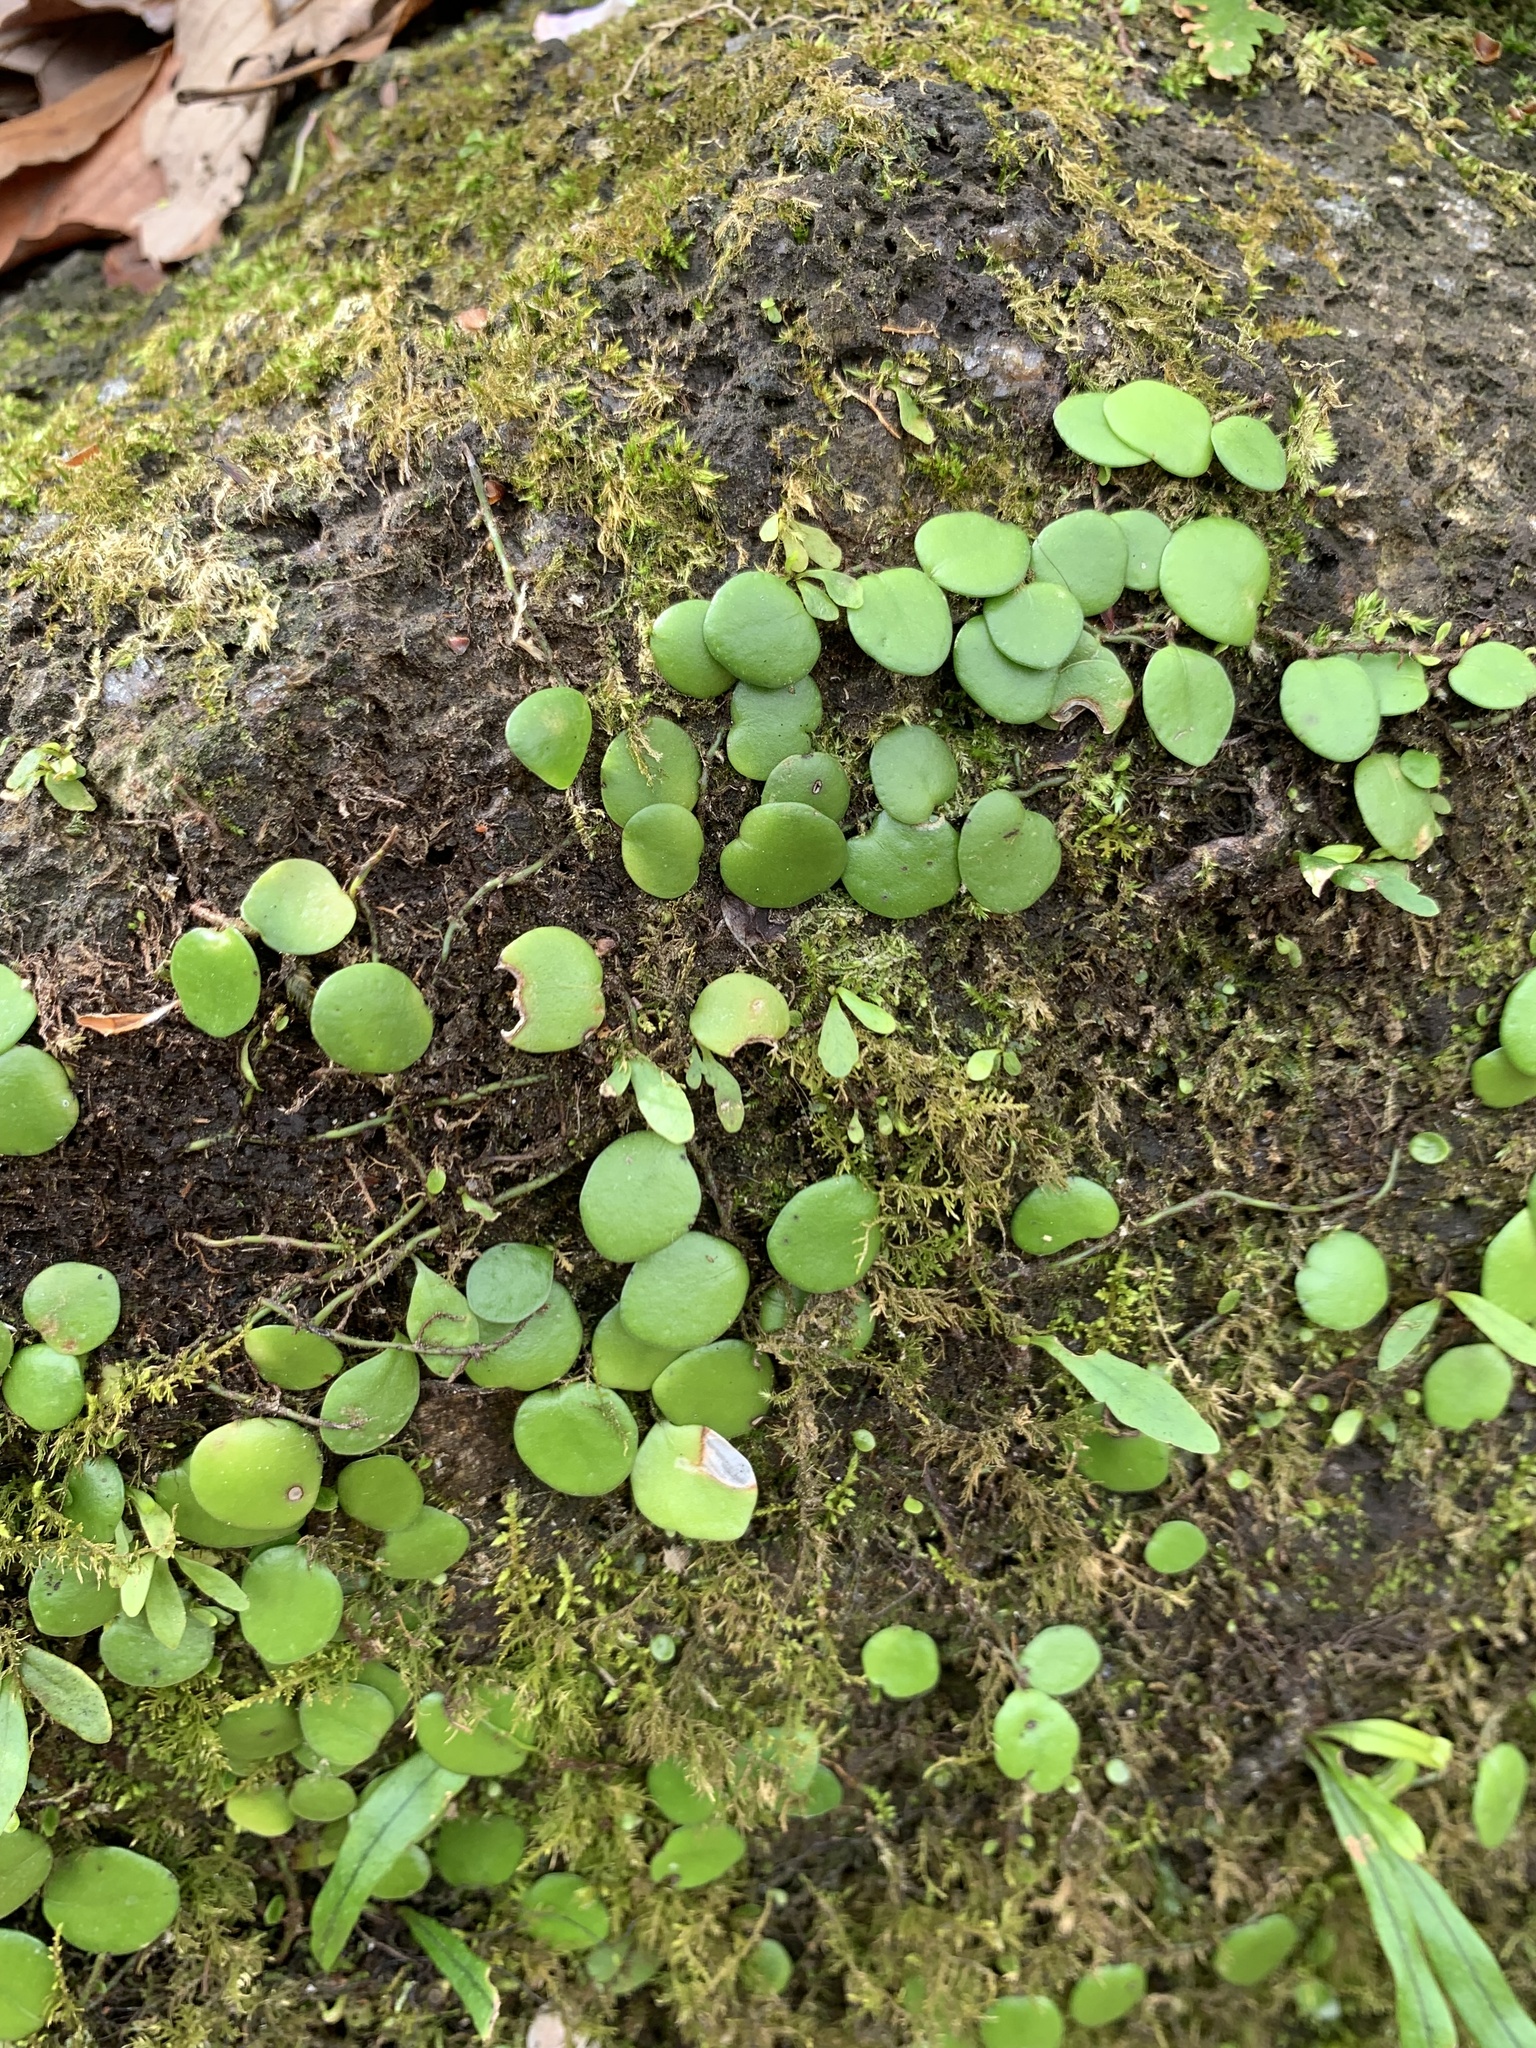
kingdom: Plantae
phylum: Tracheophyta
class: Polypodiopsida
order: Polypodiales
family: Polypodiaceae
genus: Lepisorus
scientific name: Lepisorus microphyllus
